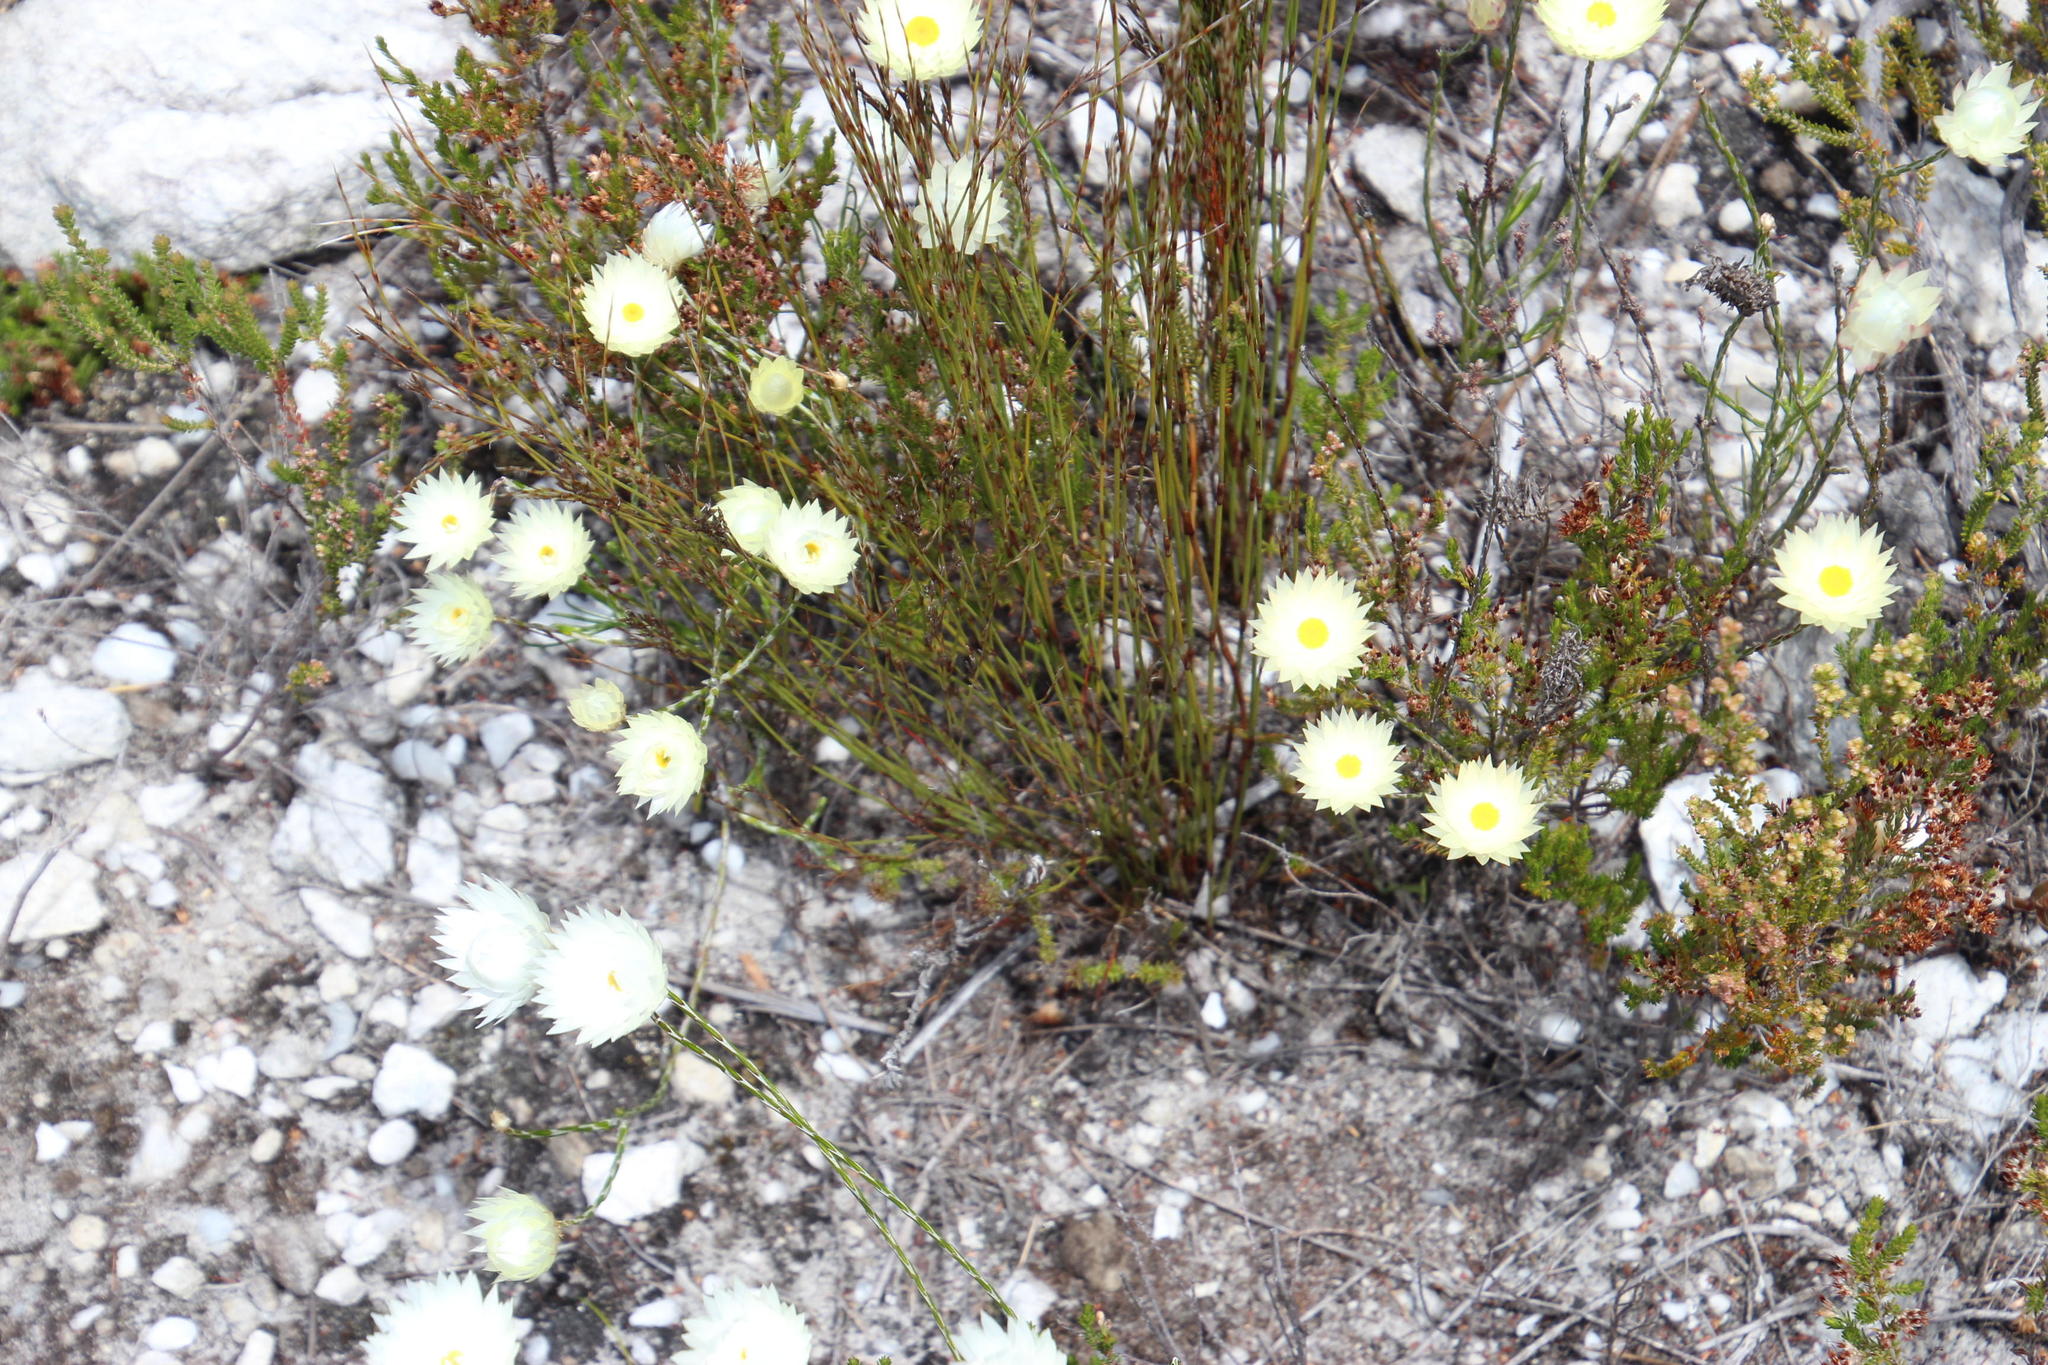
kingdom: Plantae
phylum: Tracheophyta
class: Magnoliopsida
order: Asterales
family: Asteraceae
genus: Edmondia
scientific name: Edmondia sesamoides
